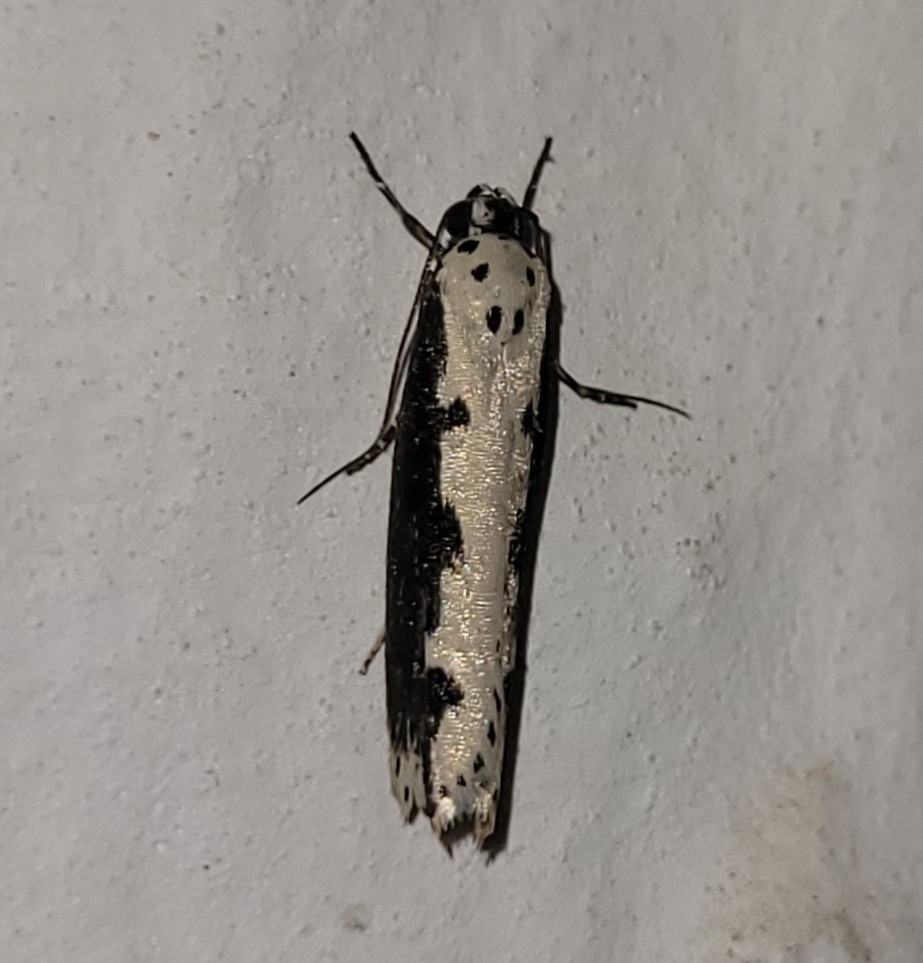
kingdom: Animalia
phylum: Arthropoda
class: Insecta
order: Lepidoptera
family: Ethmiidae
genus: Ethmia
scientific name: Ethmia bipunctella
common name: Bordered ermel
